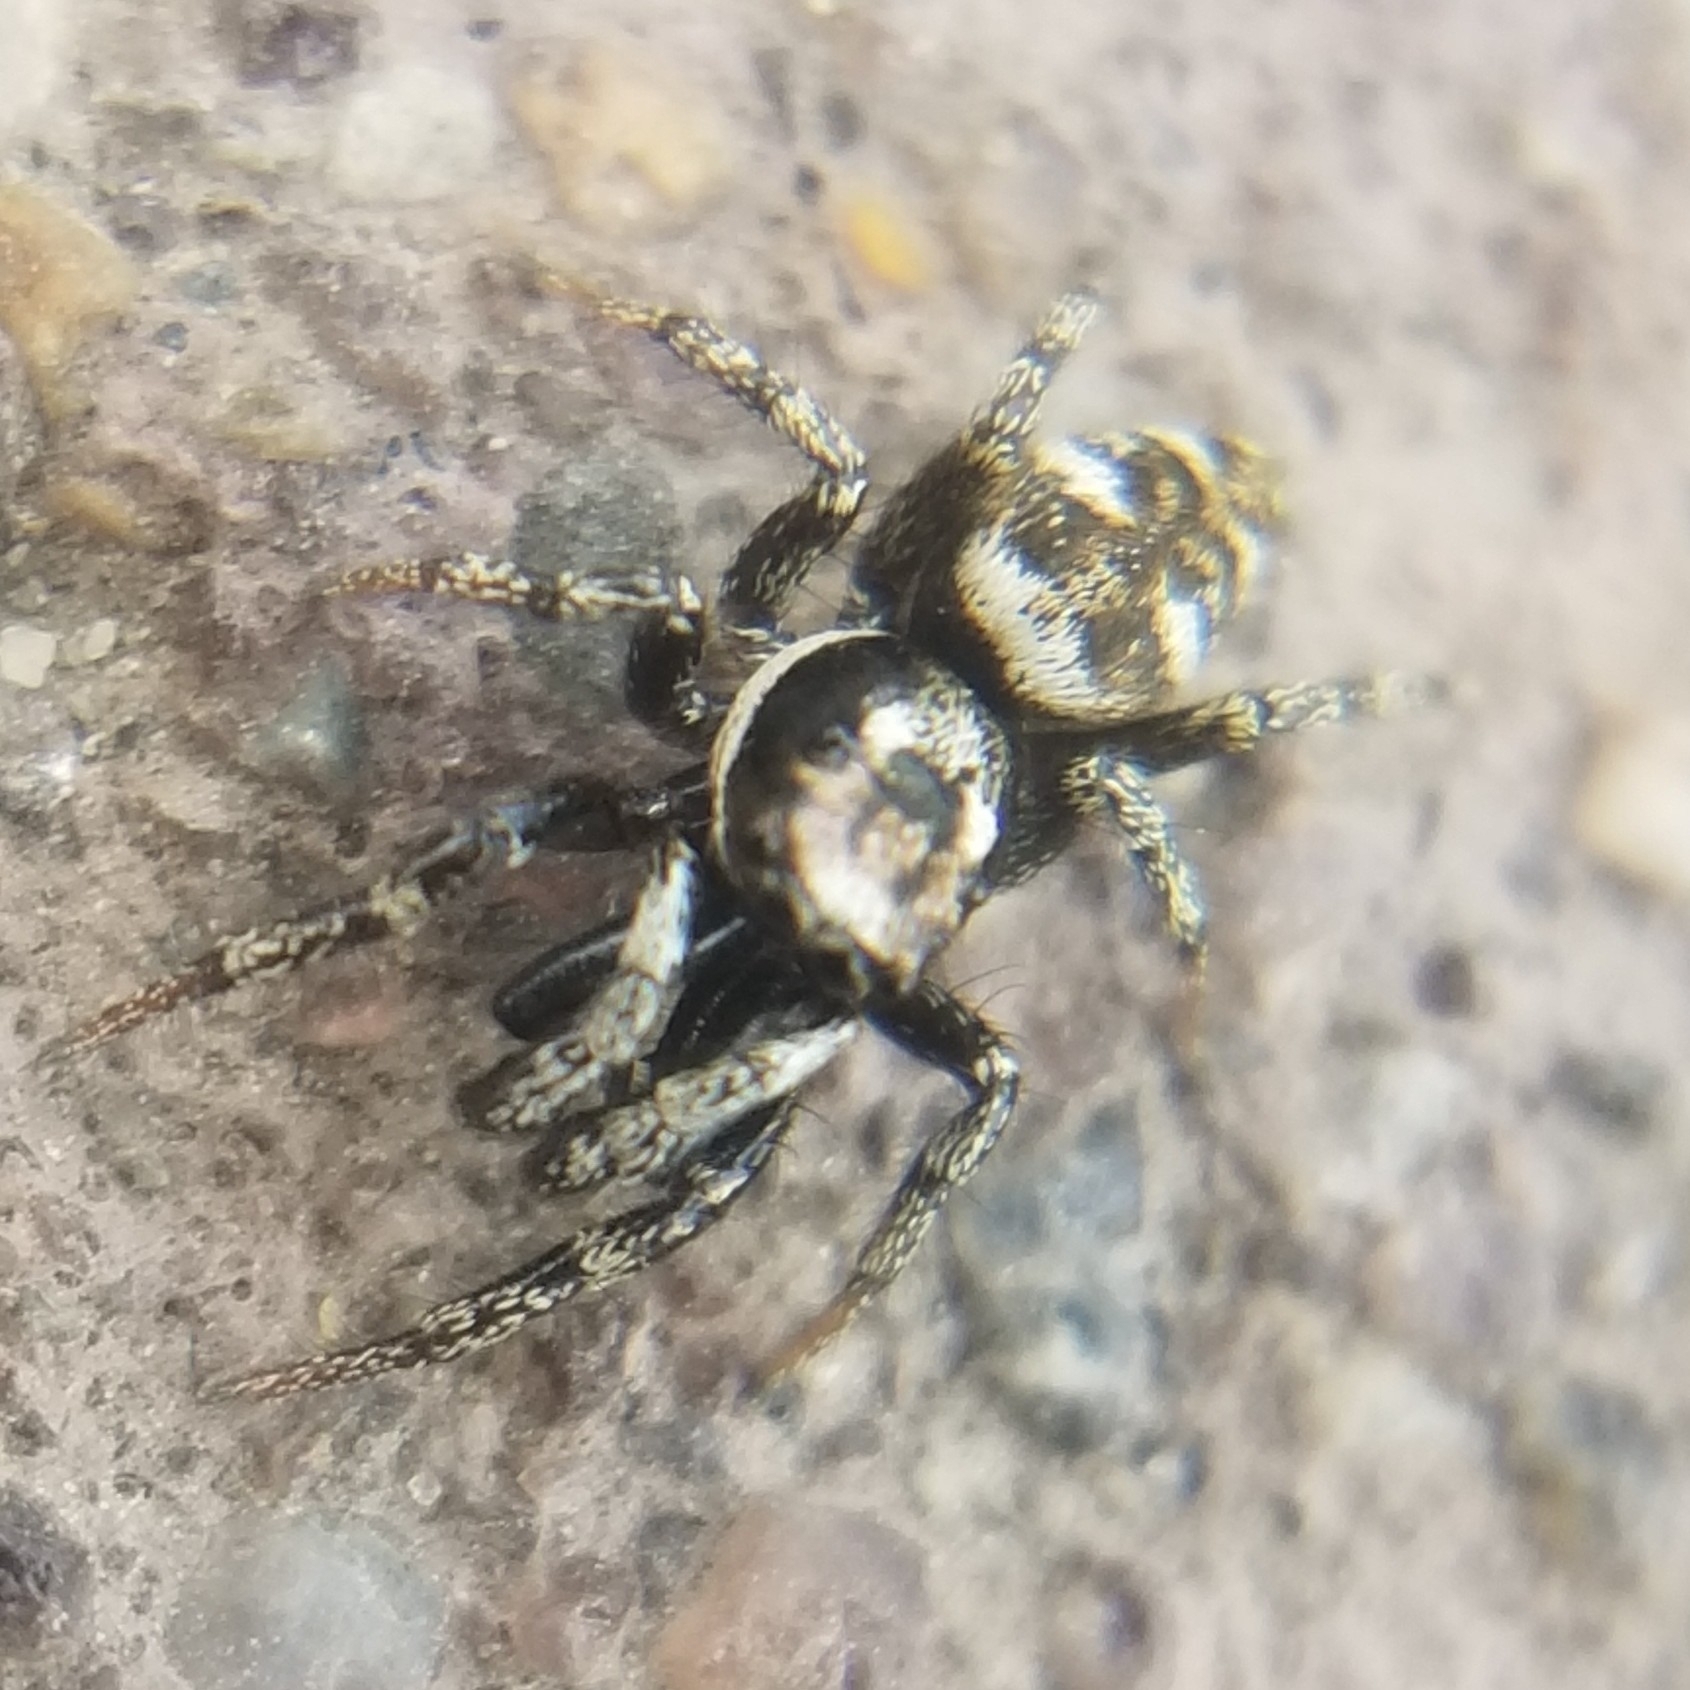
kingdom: Animalia
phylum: Arthropoda
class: Arachnida
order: Araneae
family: Salticidae
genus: Salticus
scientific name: Salticus scenicus
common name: Zebra jumper
